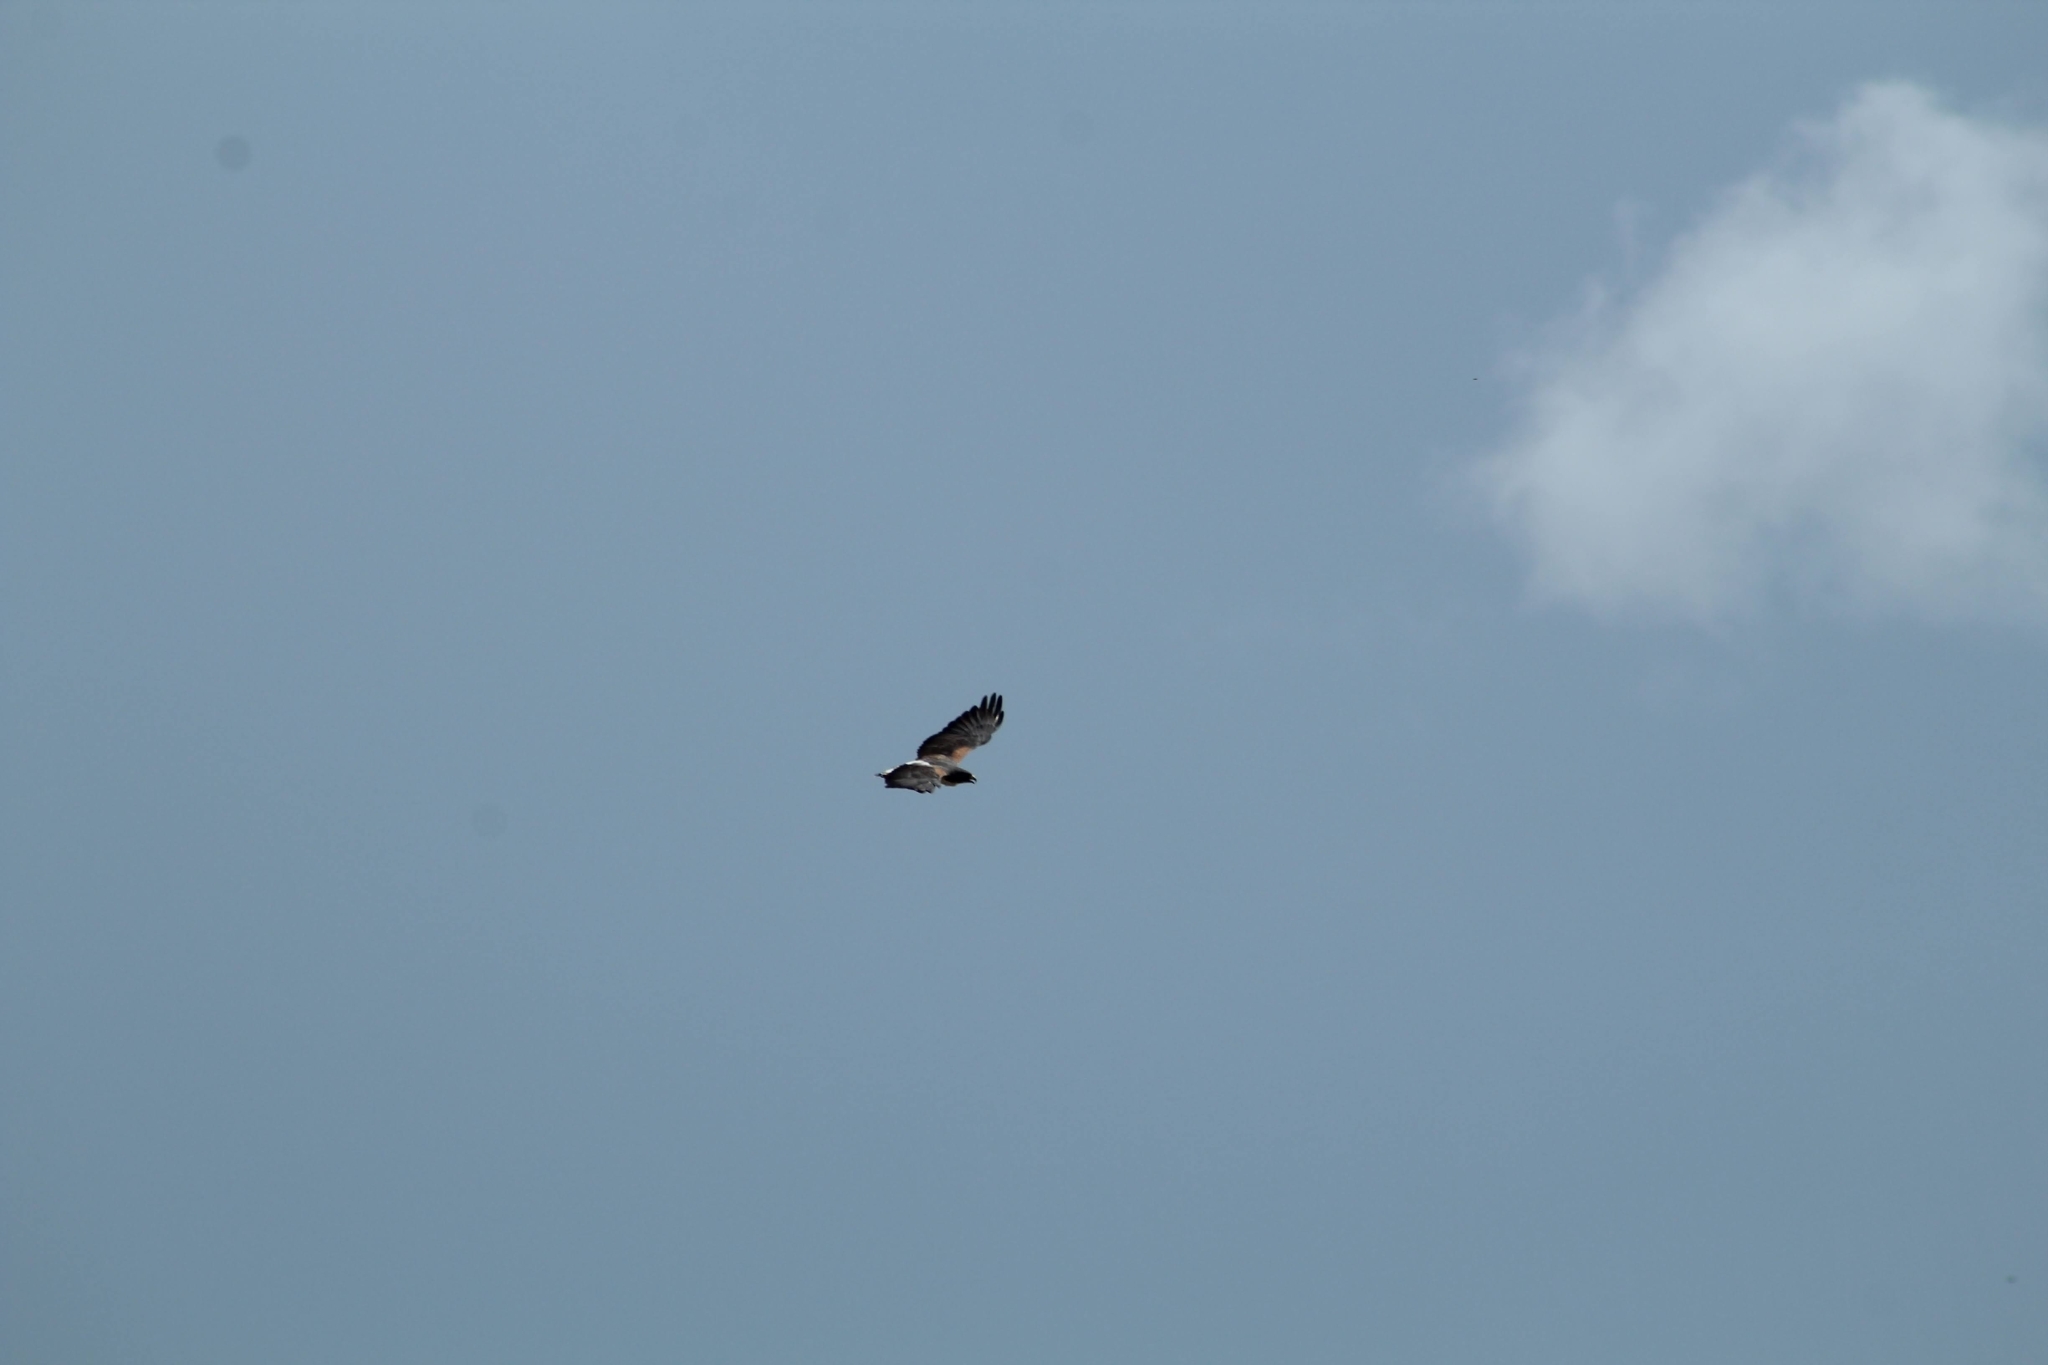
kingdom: Animalia
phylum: Chordata
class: Aves
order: Accipitriformes
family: Accipitridae
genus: Buteo
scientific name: Buteo albicaudatus
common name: White-tailed hawk
